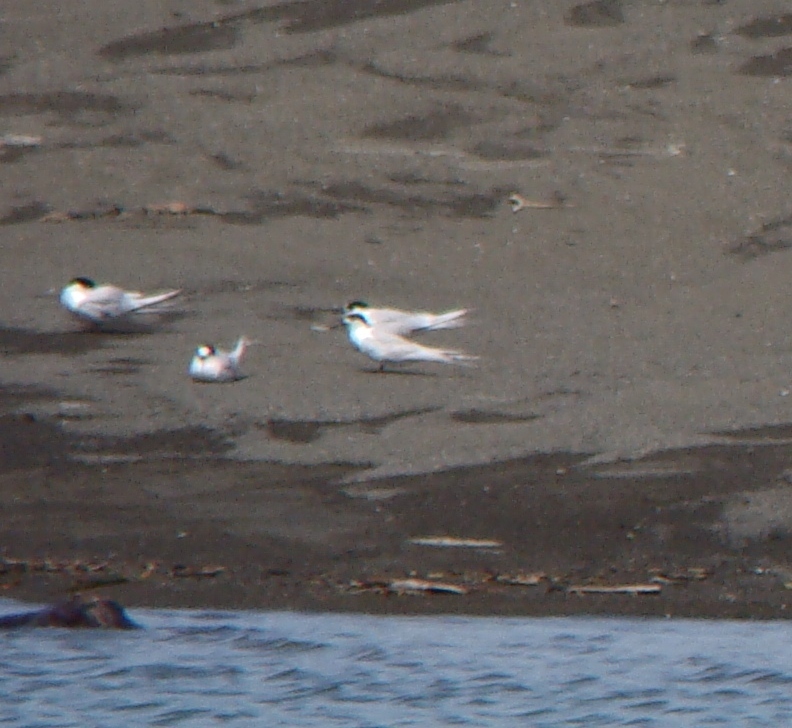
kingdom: Animalia
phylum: Chordata
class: Aves
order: Charadriiformes
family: Laridae
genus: Sterna
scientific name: Sterna striata
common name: White-fronted tern
